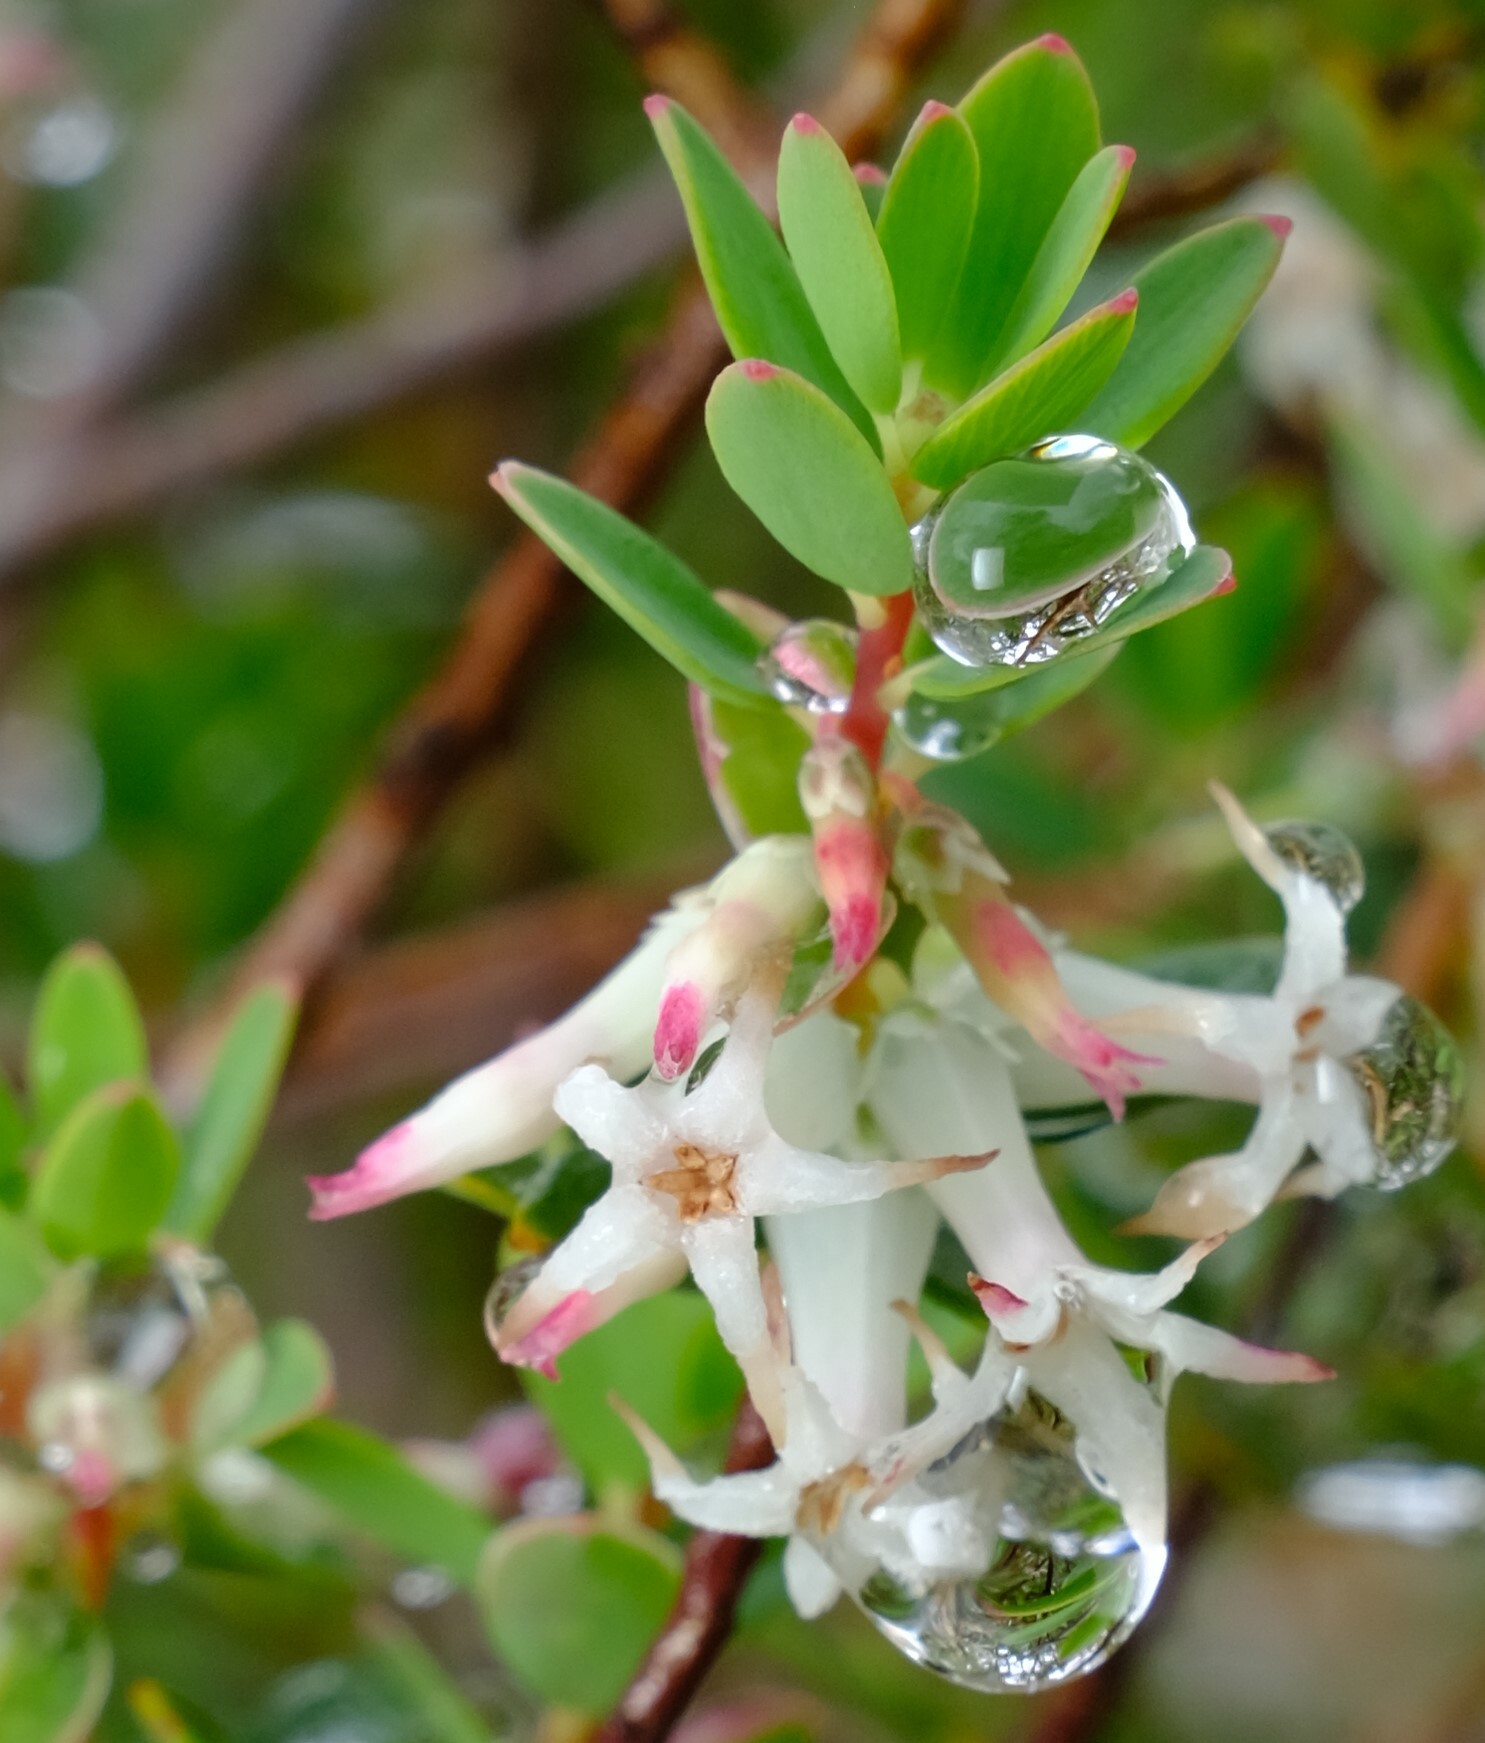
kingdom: Plantae
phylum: Tracheophyta
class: Magnoliopsida
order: Ericales
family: Ericaceae
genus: Brachyloma
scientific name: Brachyloma daphnoides
